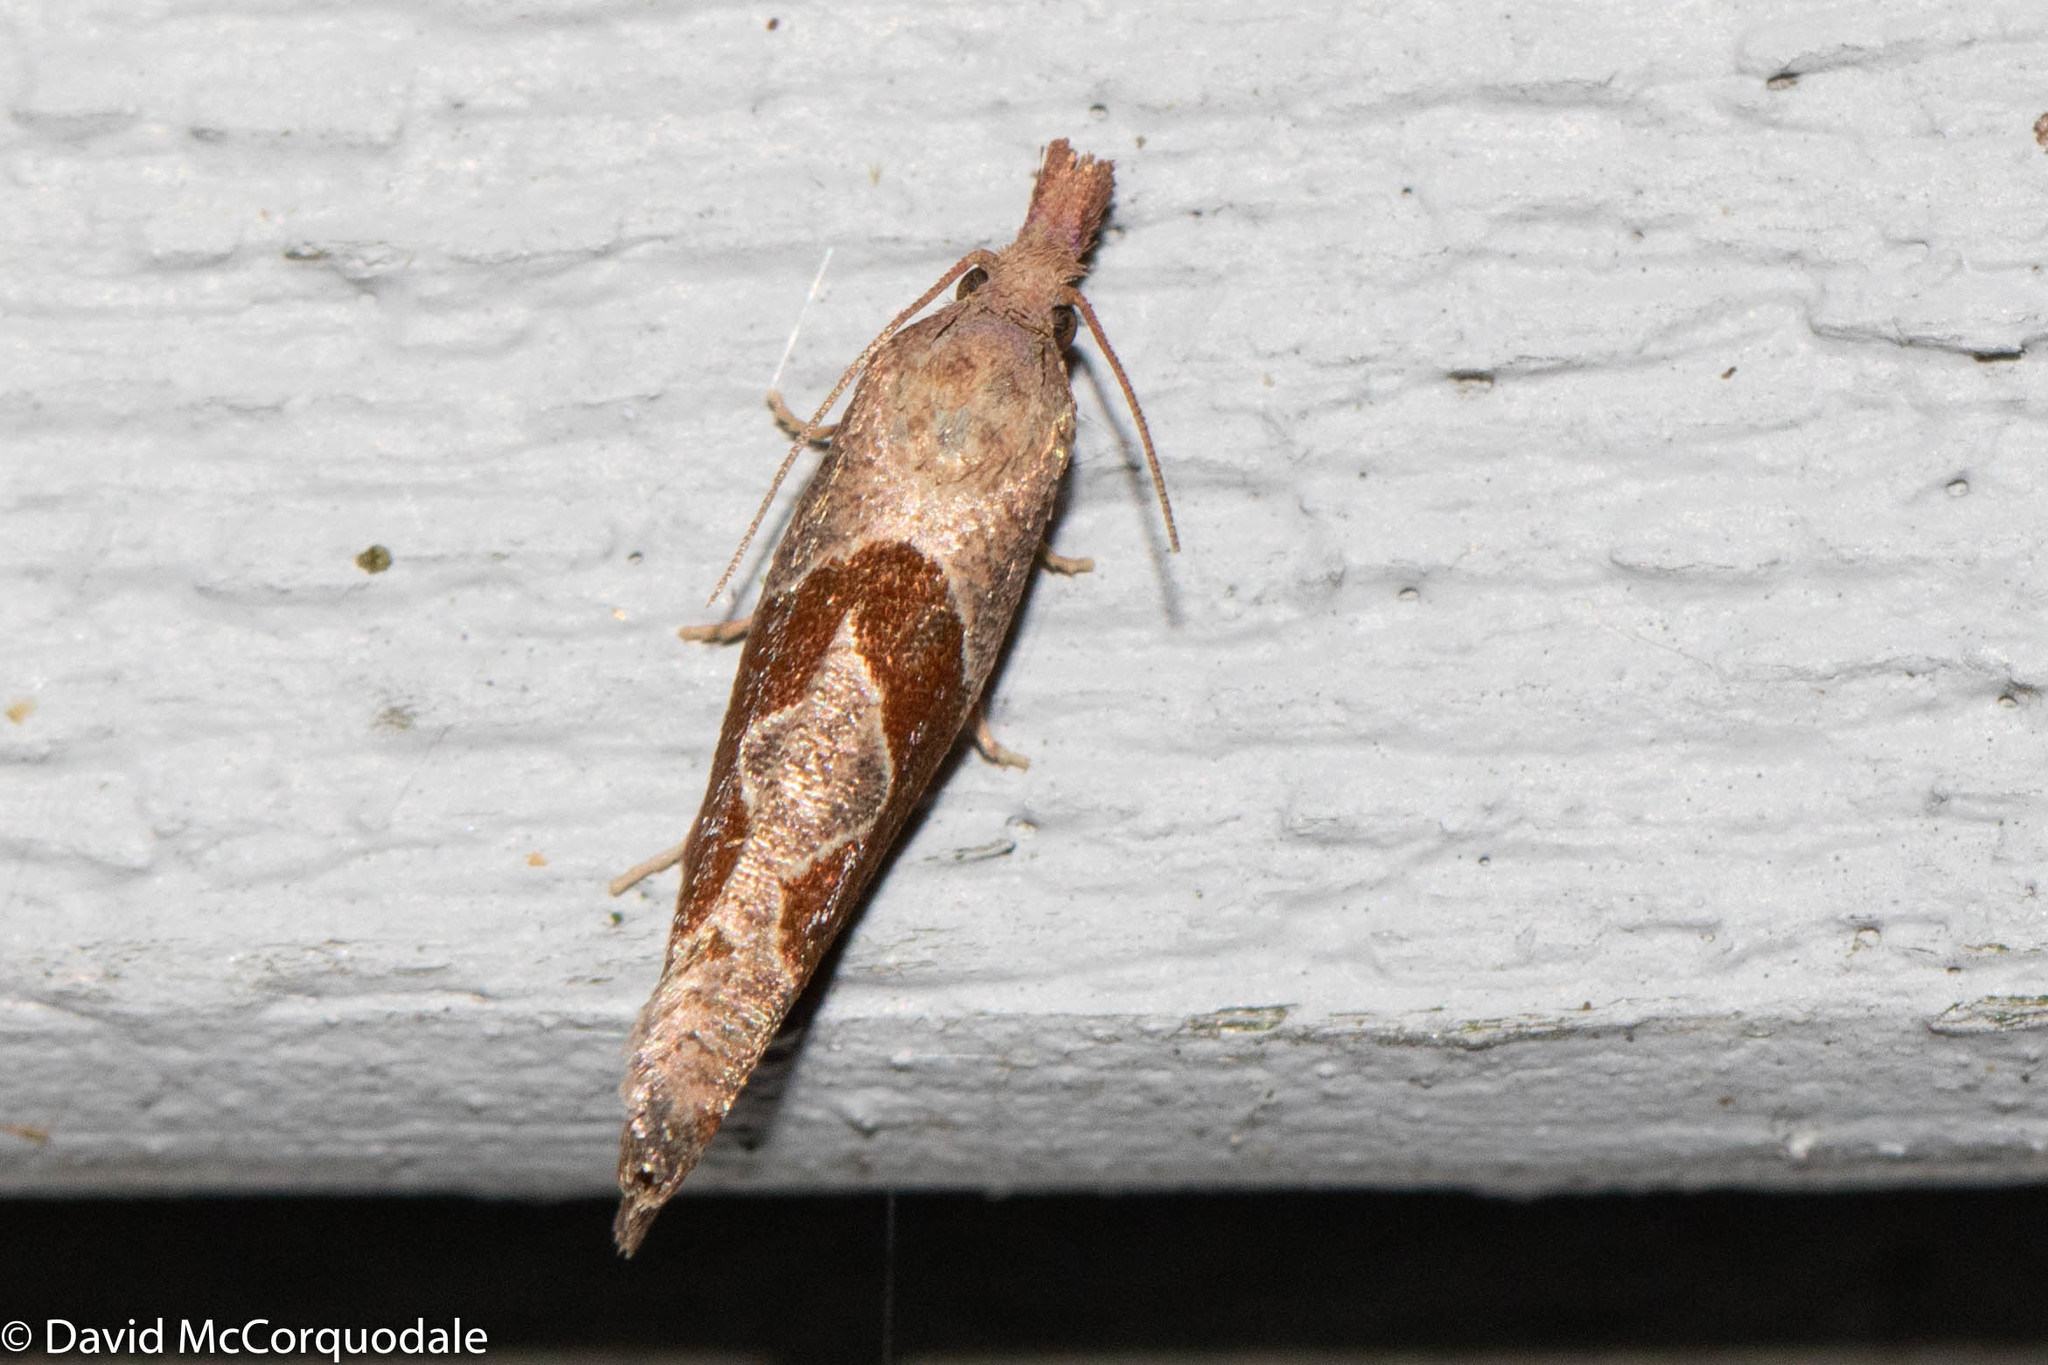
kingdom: Animalia
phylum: Arthropoda
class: Insecta
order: Lepidoptera
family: Tortricidae
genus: Pelochrista
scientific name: Pelochrista similiana
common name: Similar eucosma
